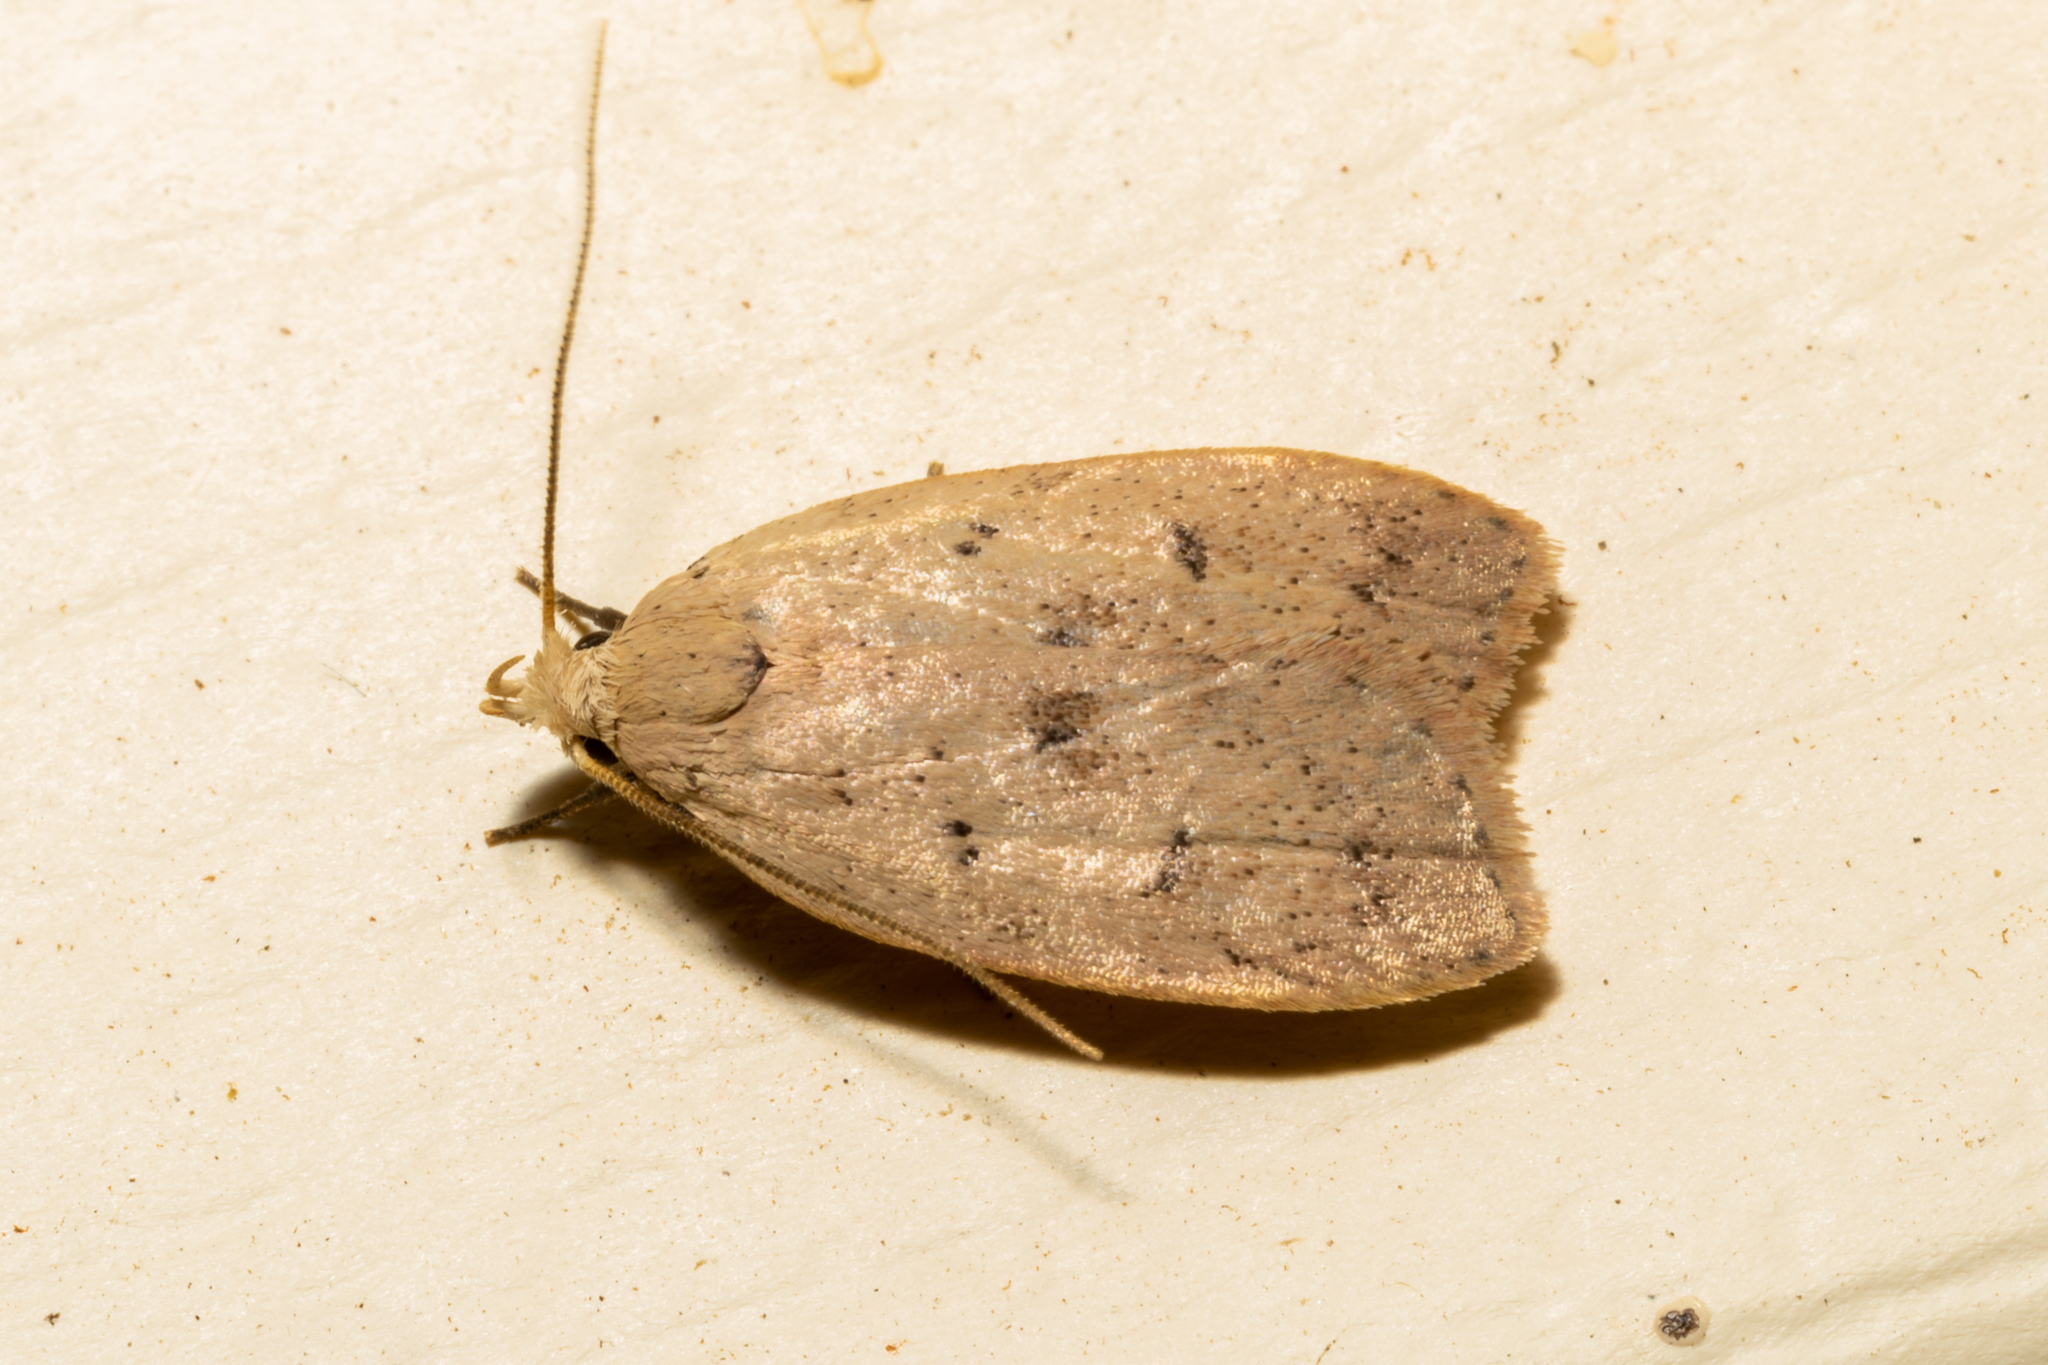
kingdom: Animalia
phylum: Arthropoda
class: Insecta
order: Lepidoptera
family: Peleopodidae
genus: Machimia
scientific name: Machimia tentoriferella
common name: Gold-striped leaftier moth
